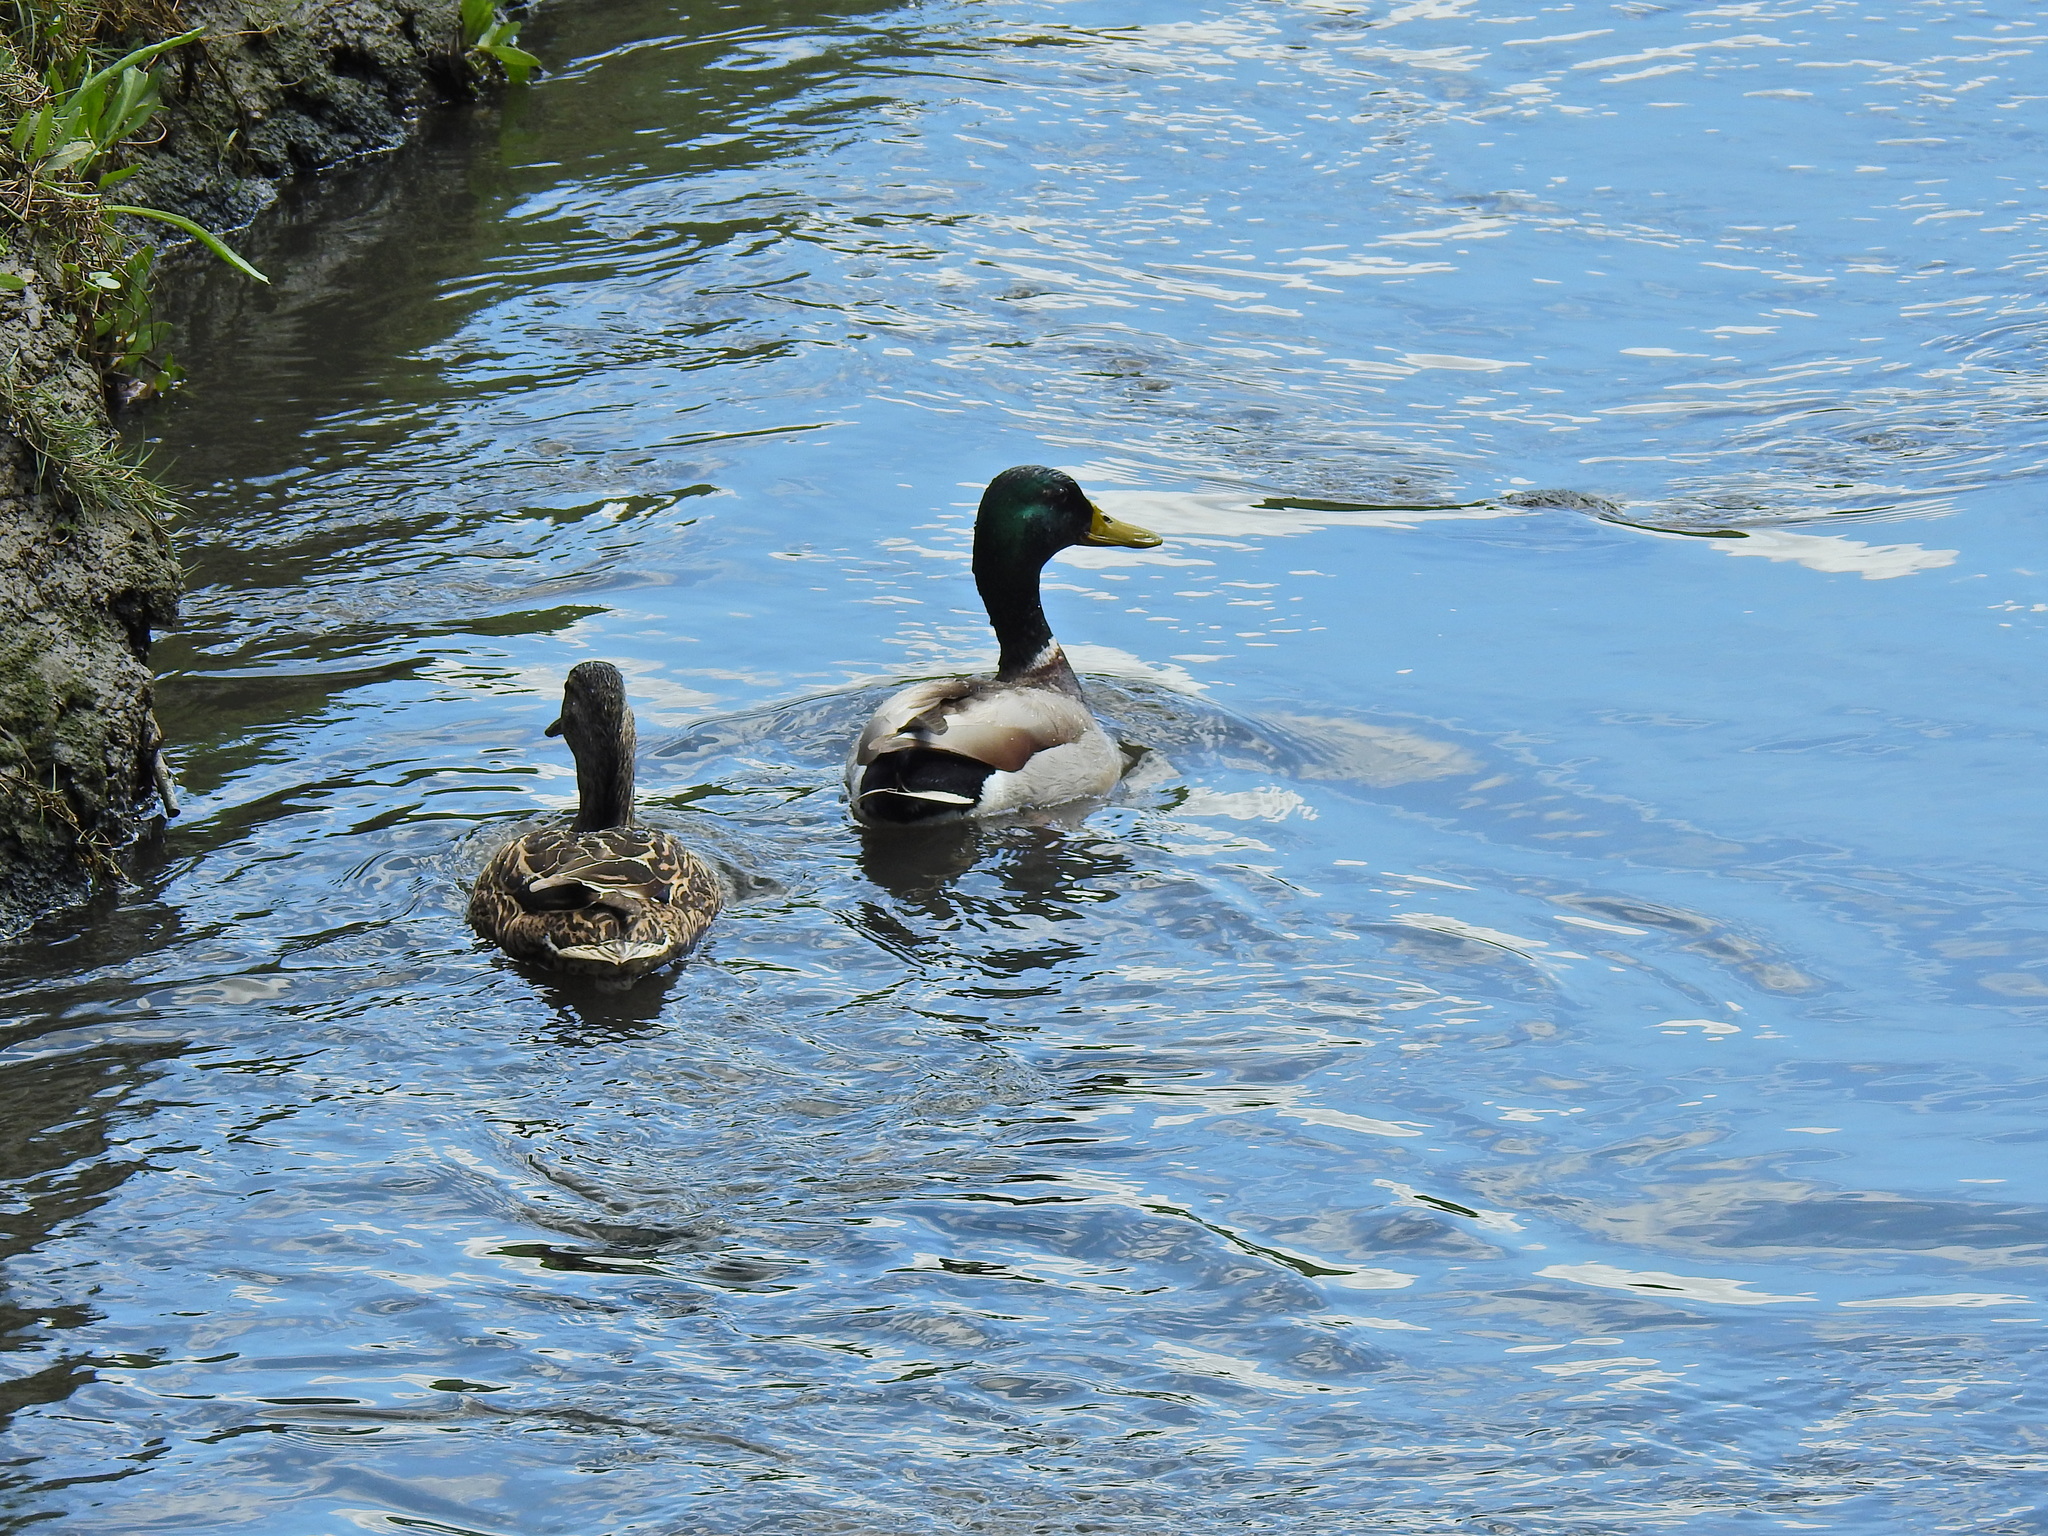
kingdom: Animalia
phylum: Chordata
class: Aves
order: Anseriformes
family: Anatidae
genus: Anas
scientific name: Anas platyrhynchos
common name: Mallard
